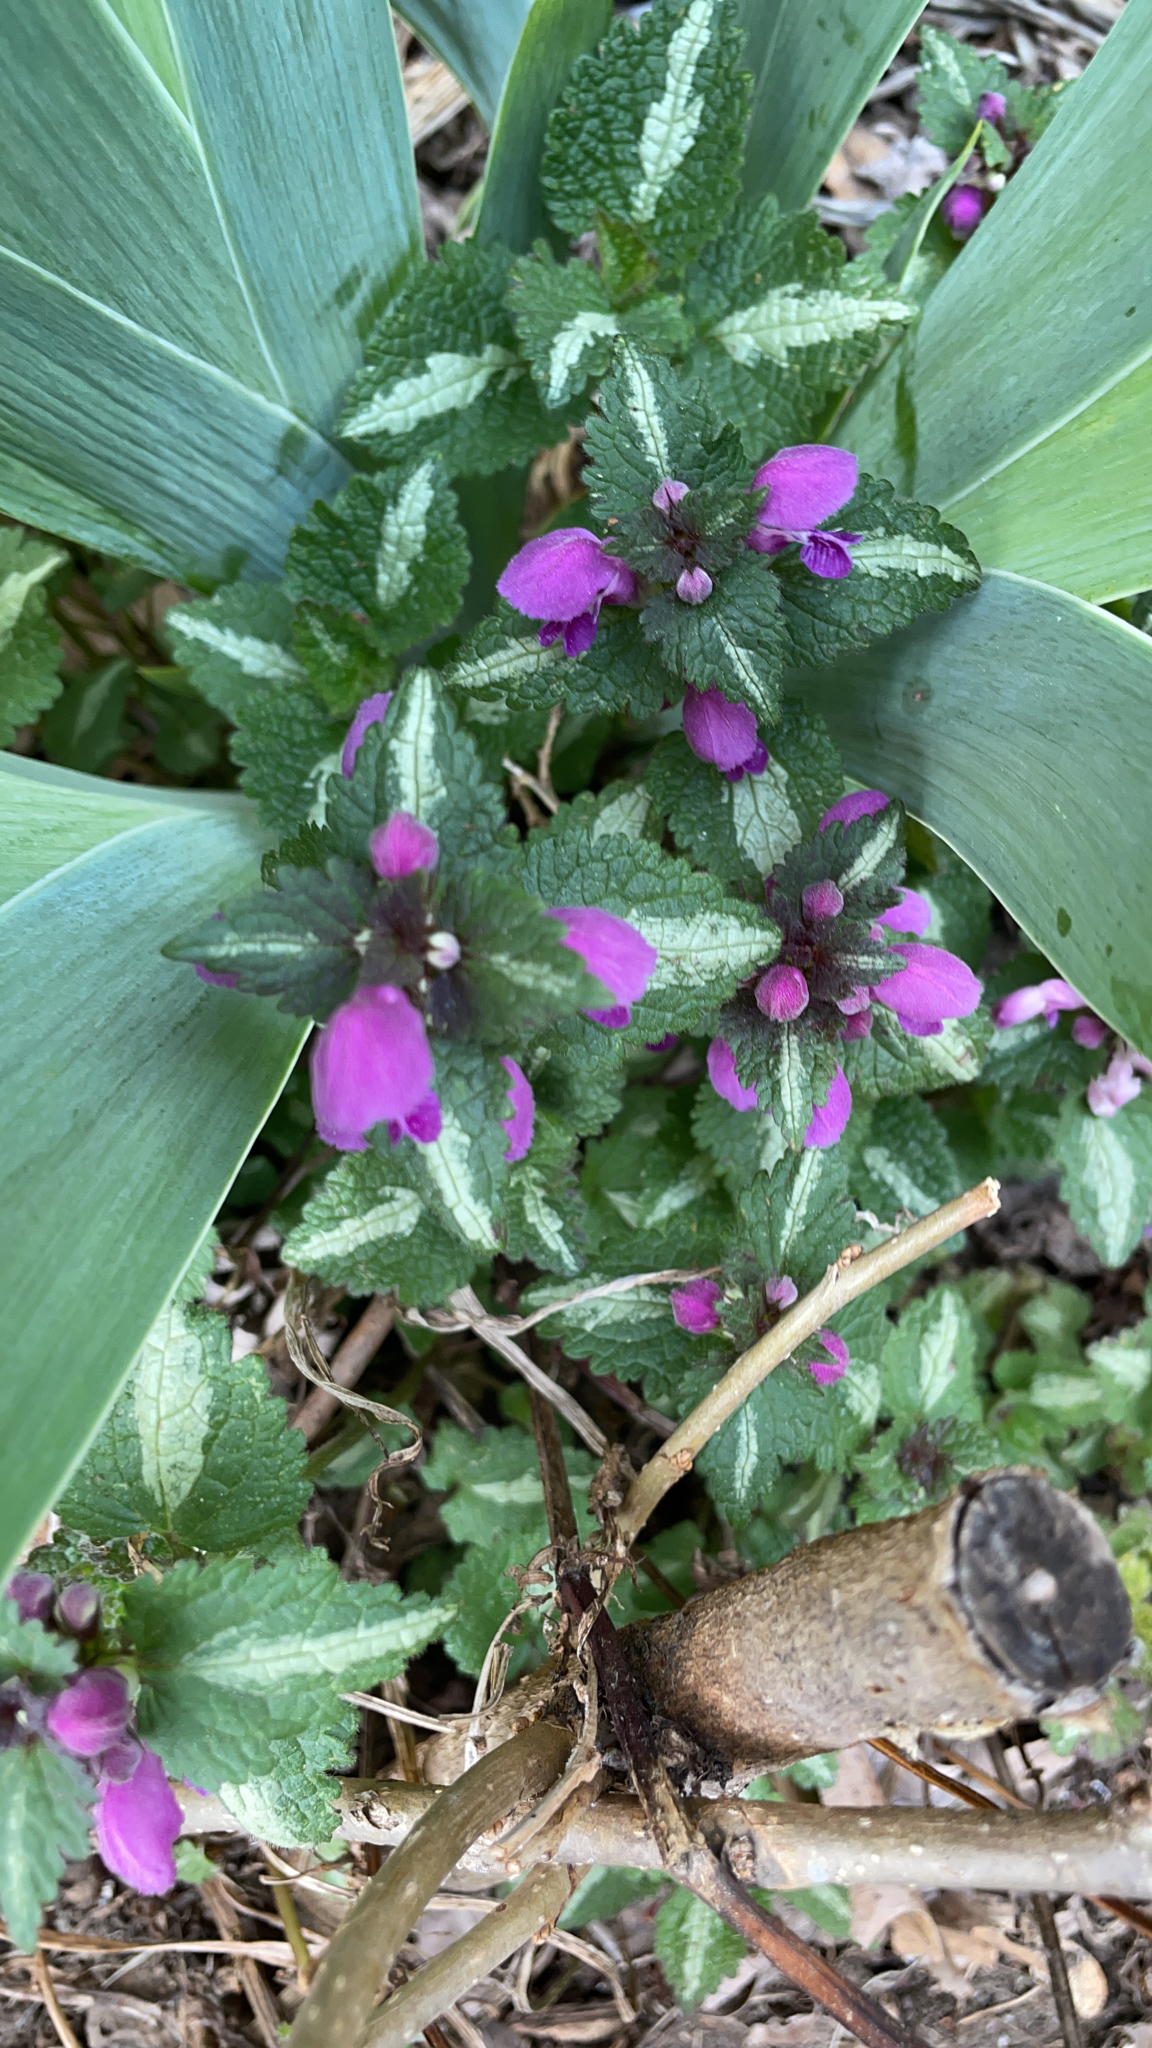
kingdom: Plantae
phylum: Tracheophyta
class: Magnoliopsida
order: Lamiales
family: Lamiaceae
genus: Lamium
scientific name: Lamium maculatum
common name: Spotted dead-nettle
